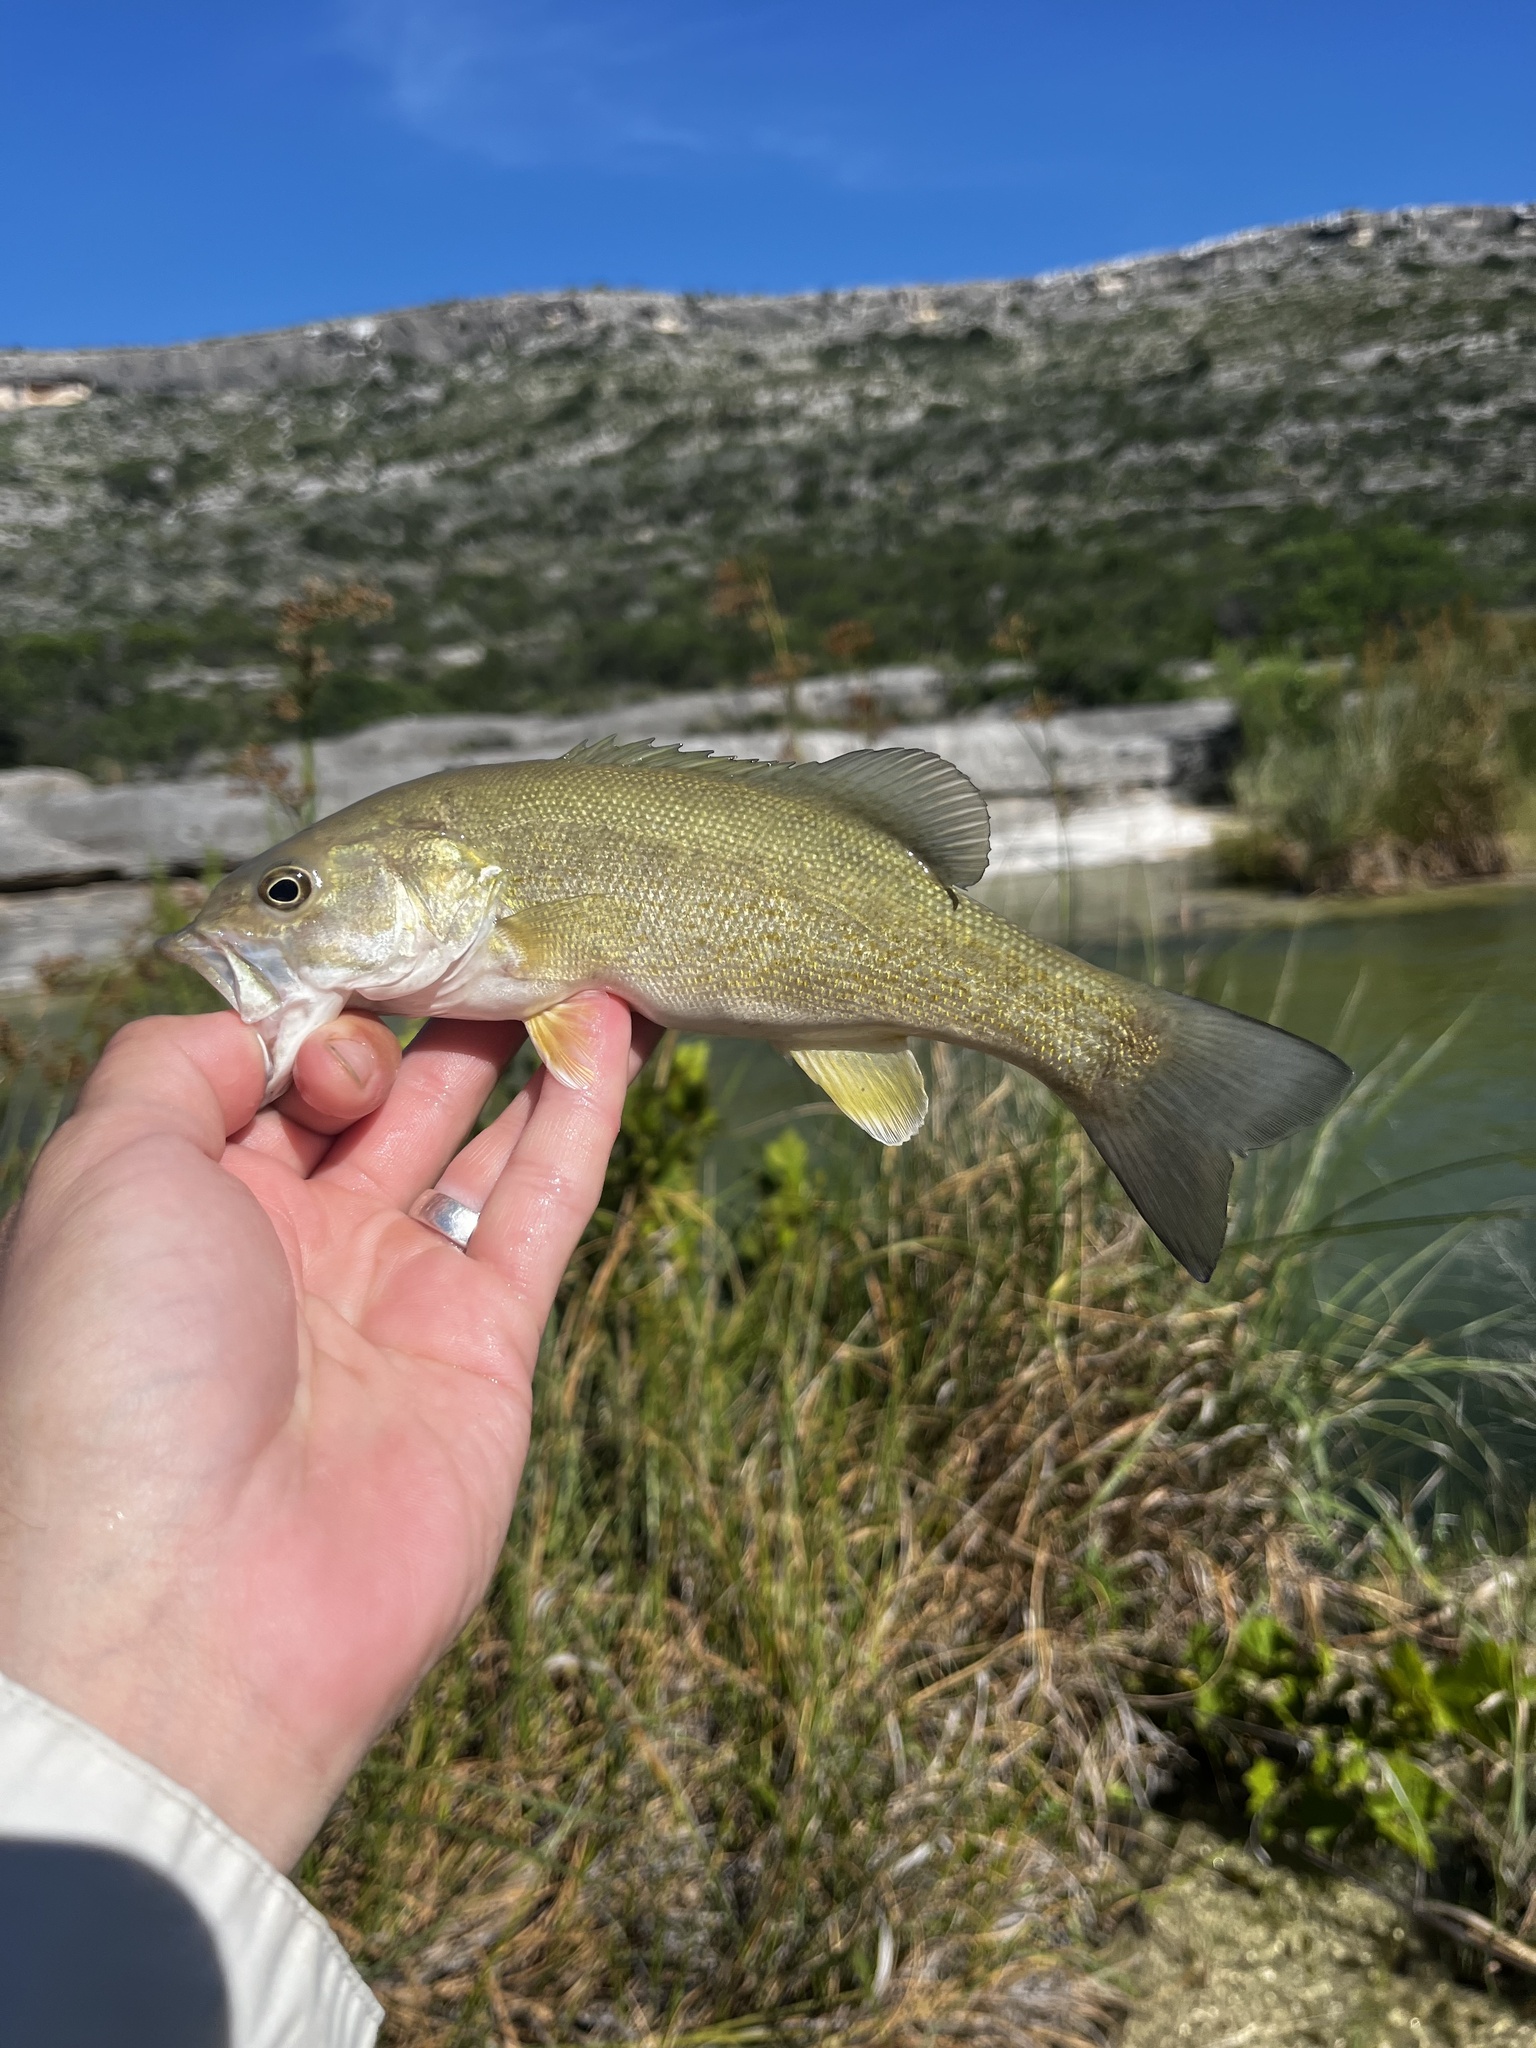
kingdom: Animalia
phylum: Chordata
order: Perciformes
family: Centrarchidae
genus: Micropterus
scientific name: Micropterus dolomieu
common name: Smallmouth bass
